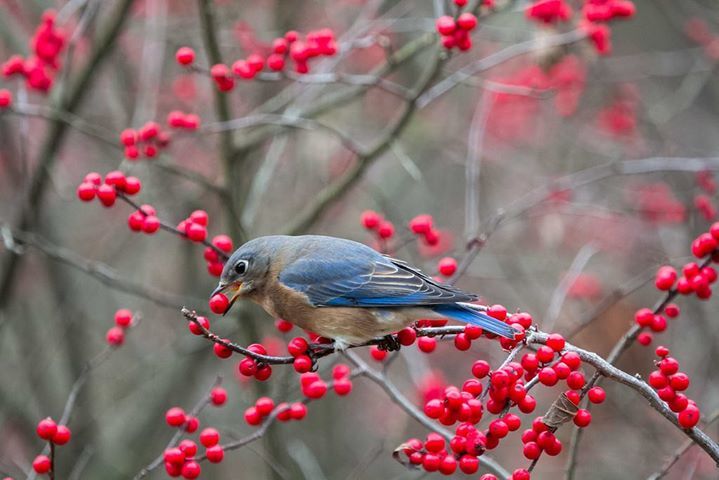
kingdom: Animalia
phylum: Chordata
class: Aves
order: Passeriformes
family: Turdidae
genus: Sialia
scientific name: Sialia sialis
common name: Eastern bluebird
